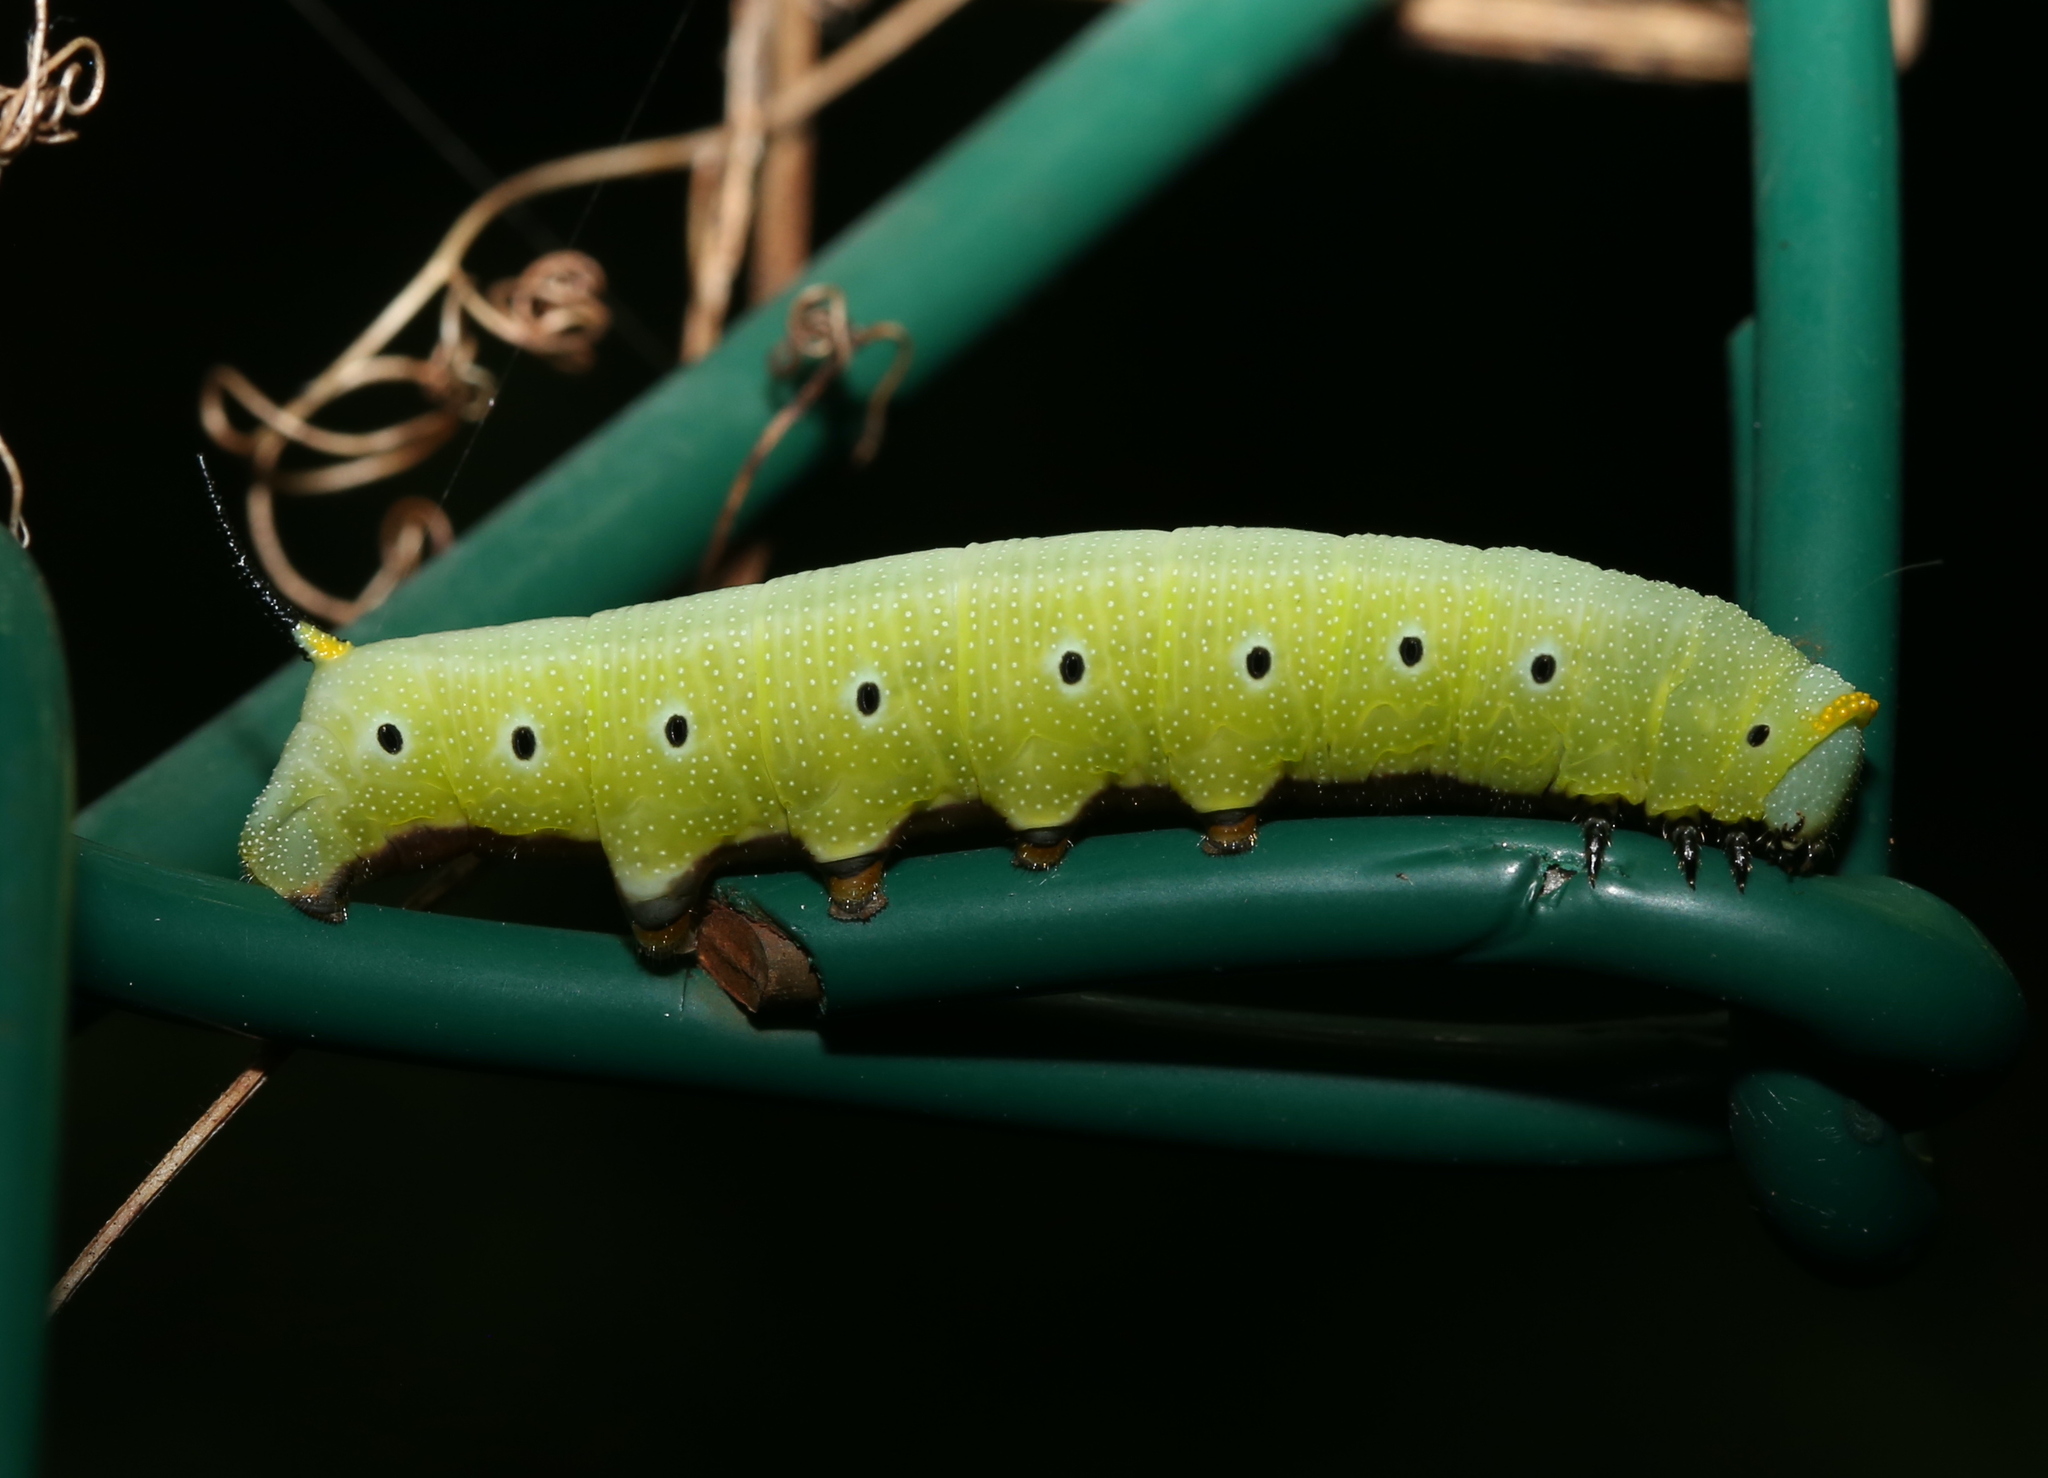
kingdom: Animalia
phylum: Arthropoda
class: Insecta
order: Lepidoptera
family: Sphingidae
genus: Hemaris
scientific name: Hemaris diffinis
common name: Bumblebee moth
